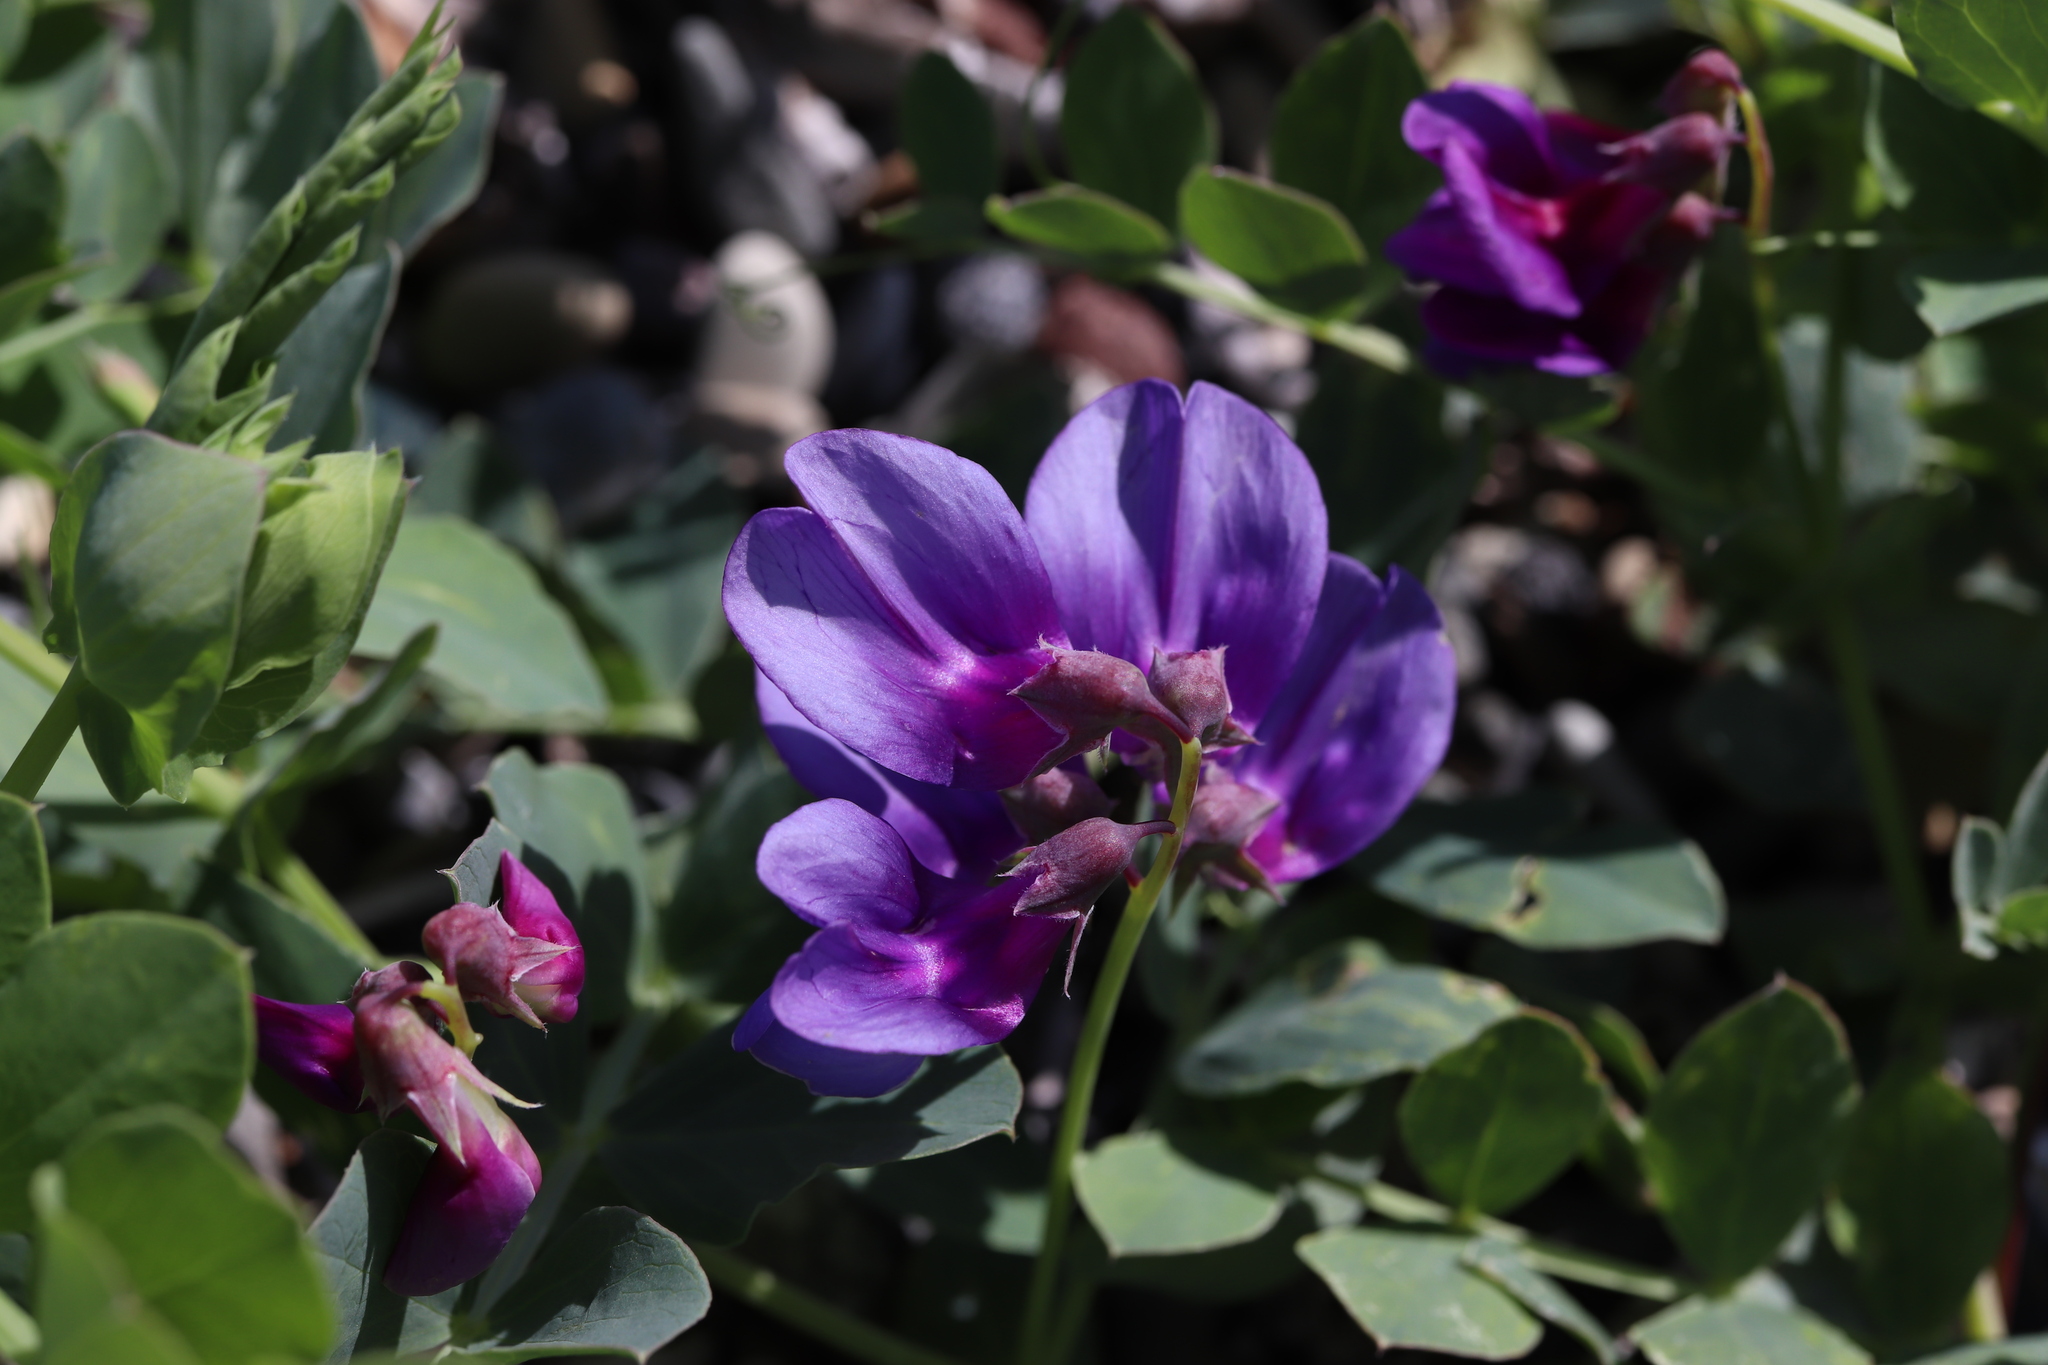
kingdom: Plantae
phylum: Tracheophyta
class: Magnoliopsida
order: Fabales
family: Fabaceae
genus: Lathyrus
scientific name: Lathyrus japonicus
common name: Sea pea
